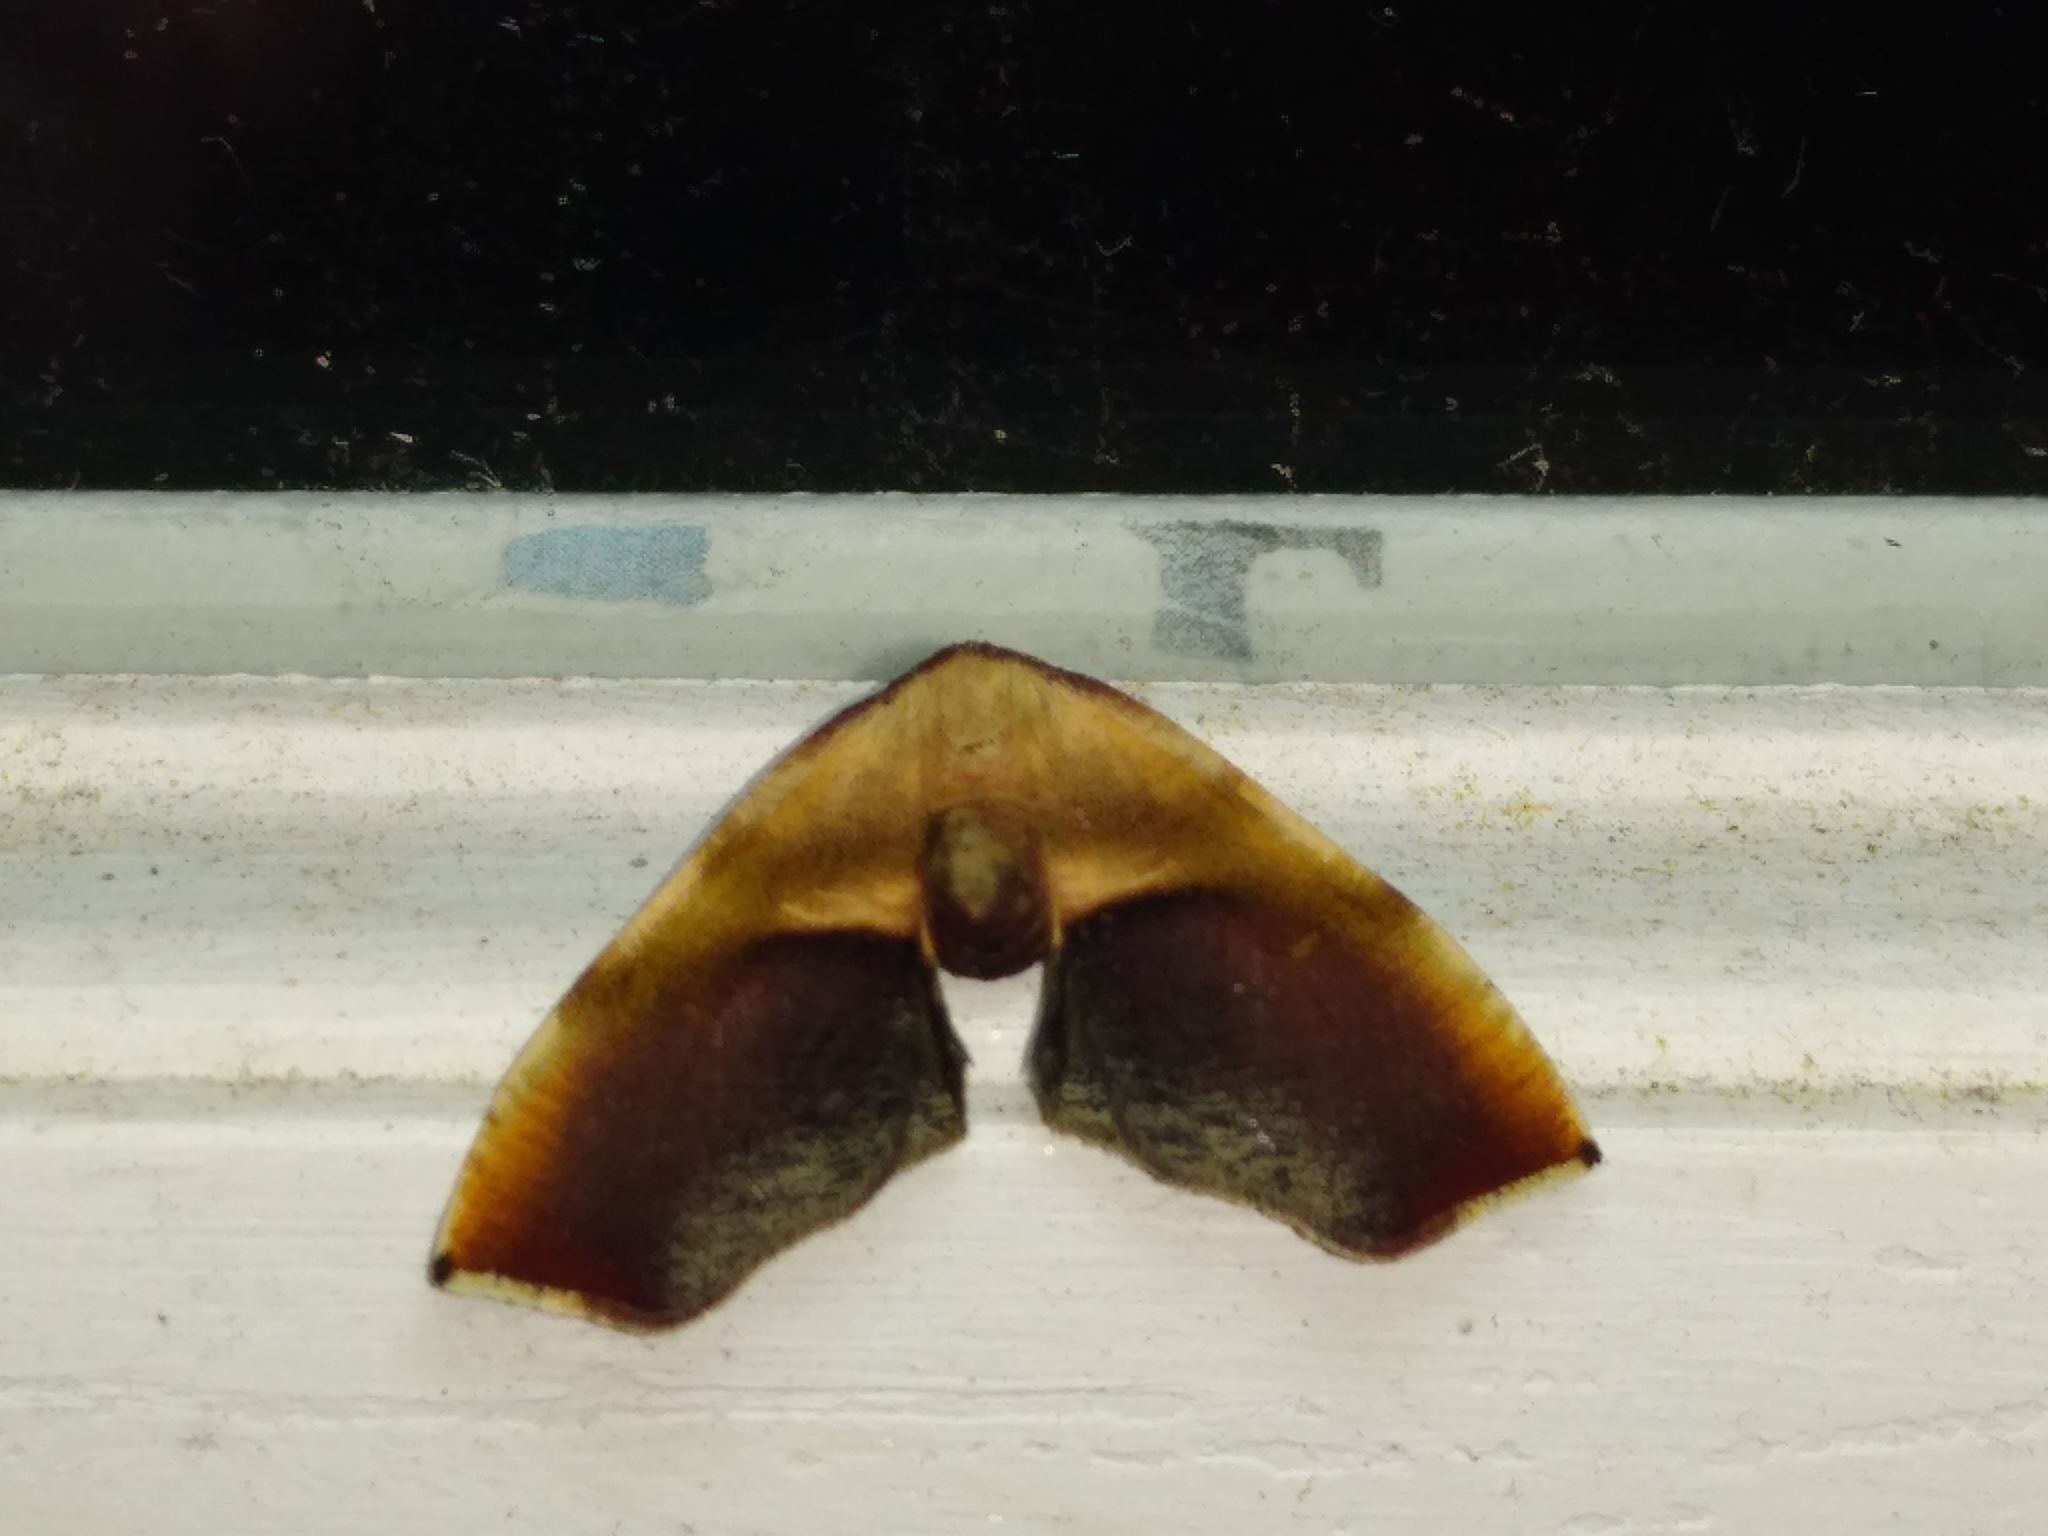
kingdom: Animalia
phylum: Arthropoda
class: Insecta
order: Lepidoptera
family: Geometridae
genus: Plagodis
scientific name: Plagodis kuetzingi
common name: Purple plagodis
